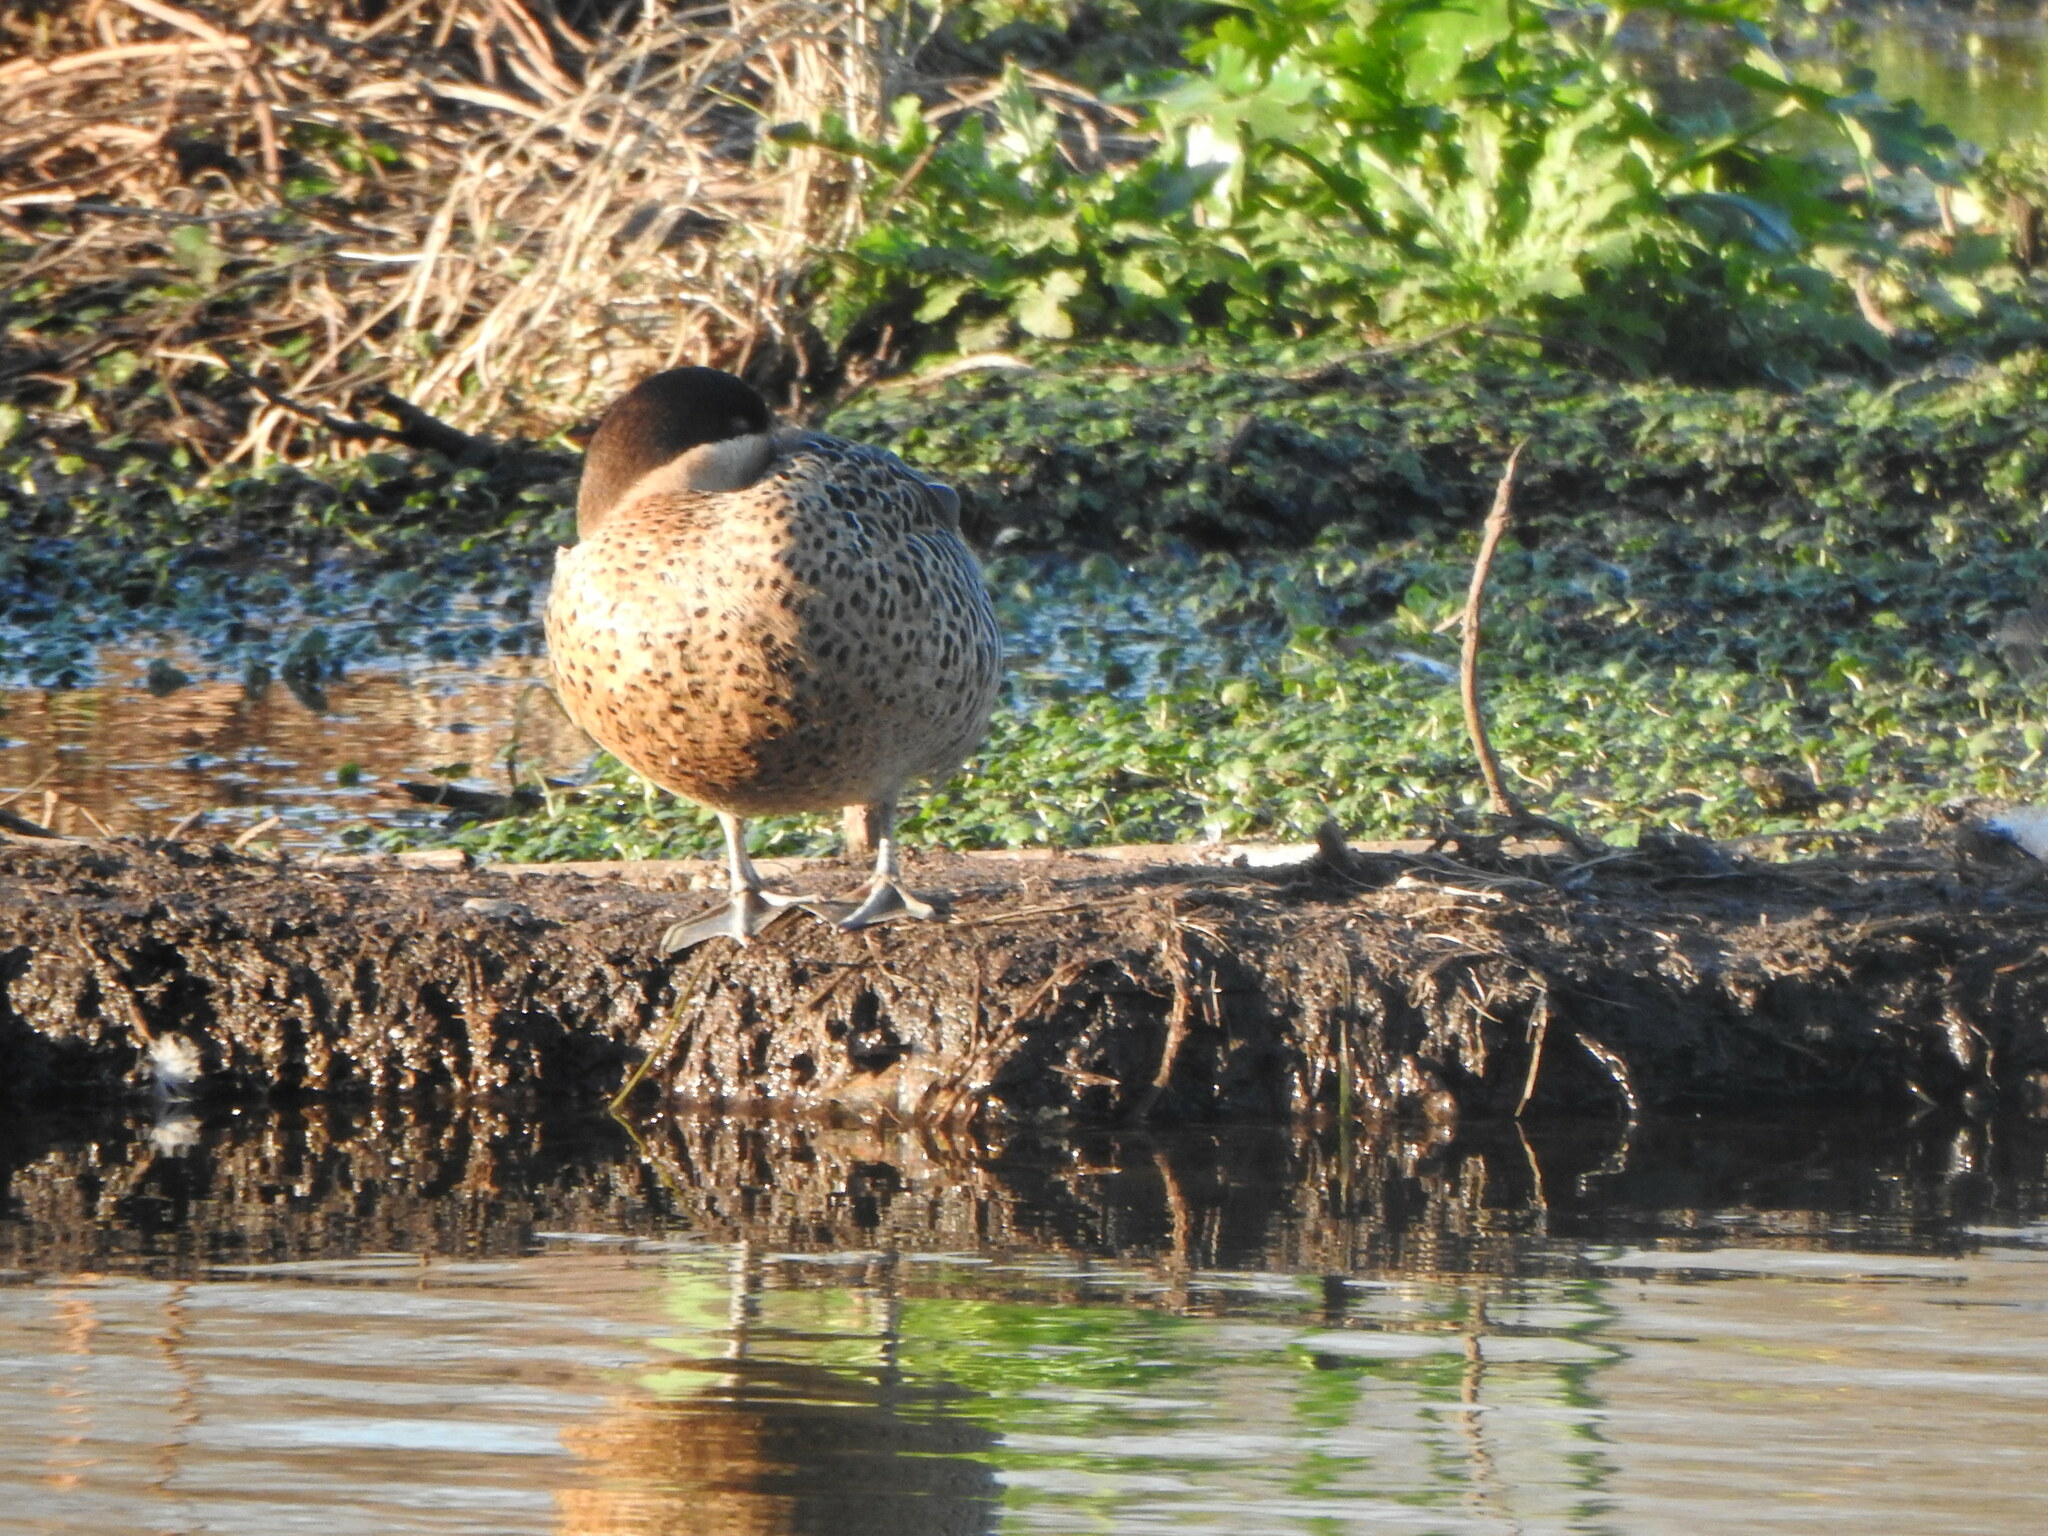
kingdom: Animalia
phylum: Chordata
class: Aves
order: Anseriformes
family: Anatidae
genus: Spatula
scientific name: Spatula versicolor
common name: Silver teal
